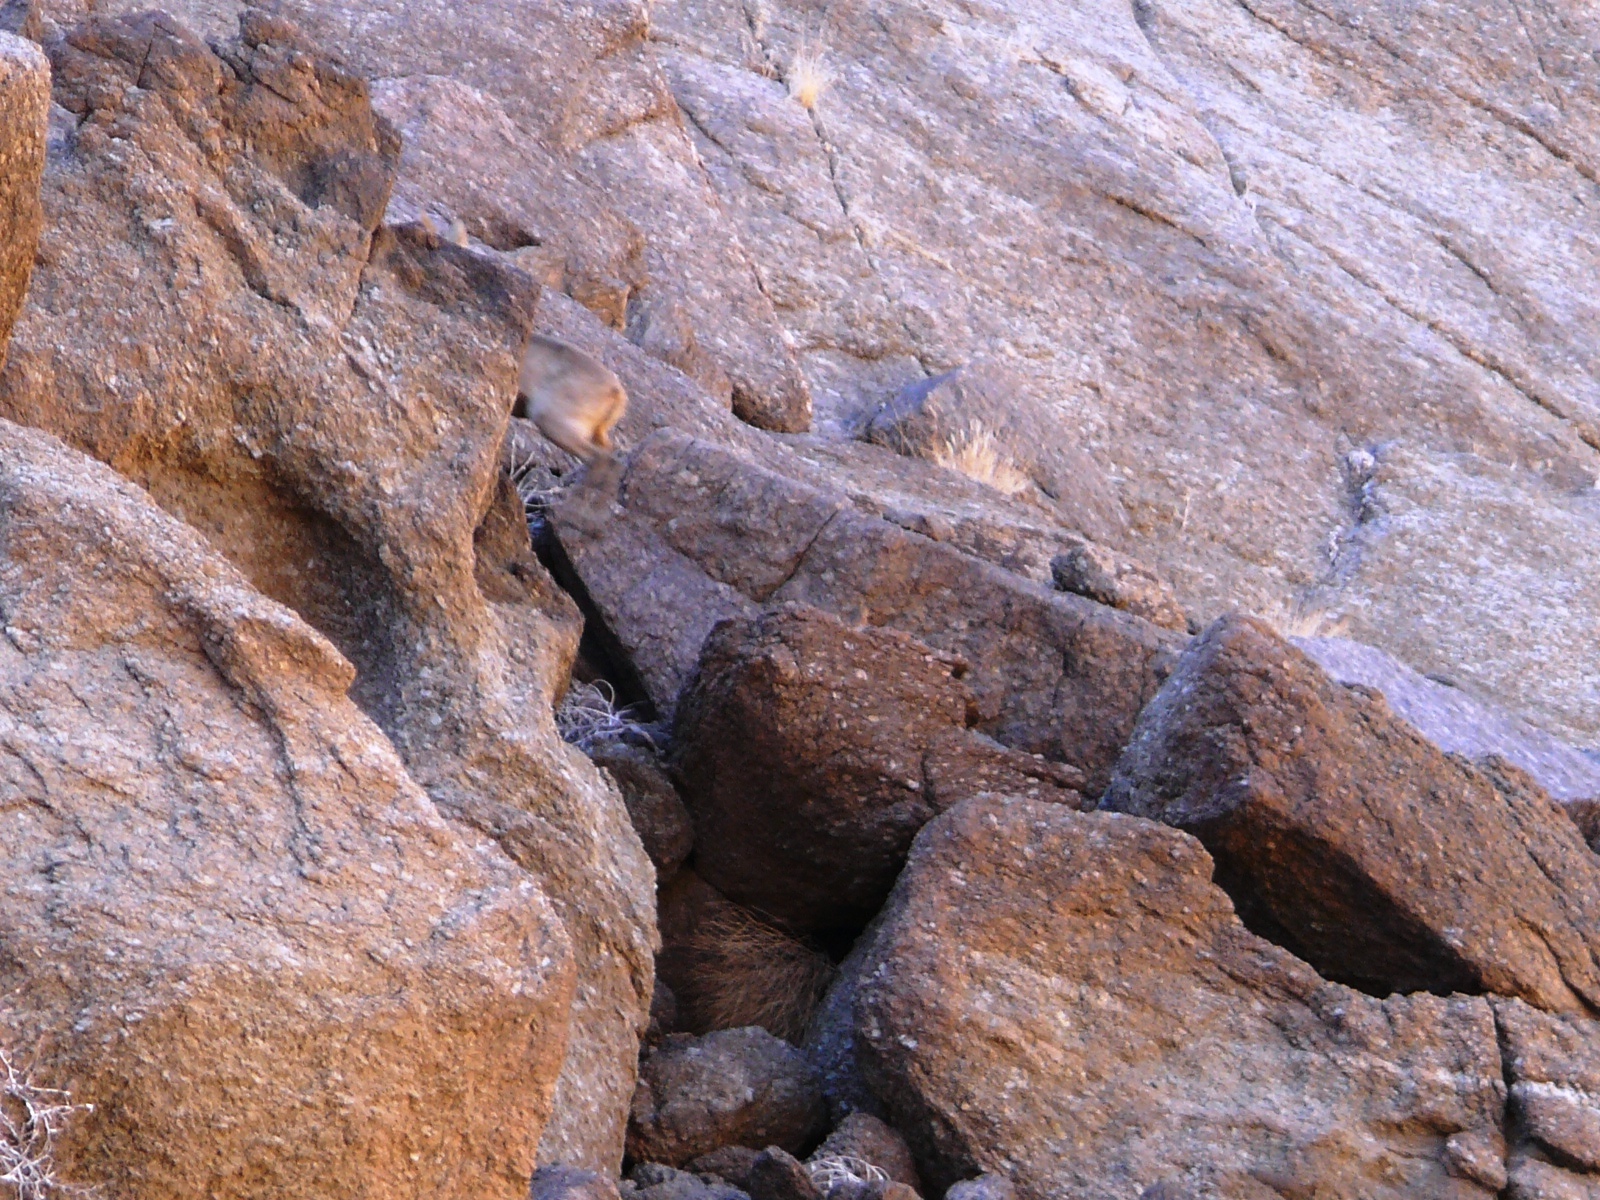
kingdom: Animalia
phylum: Chordata
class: Mammalia
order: Artiodactyla
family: Bovidae
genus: Oreotragus
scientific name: Oreotragus oreotragus
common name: Klipspringer
